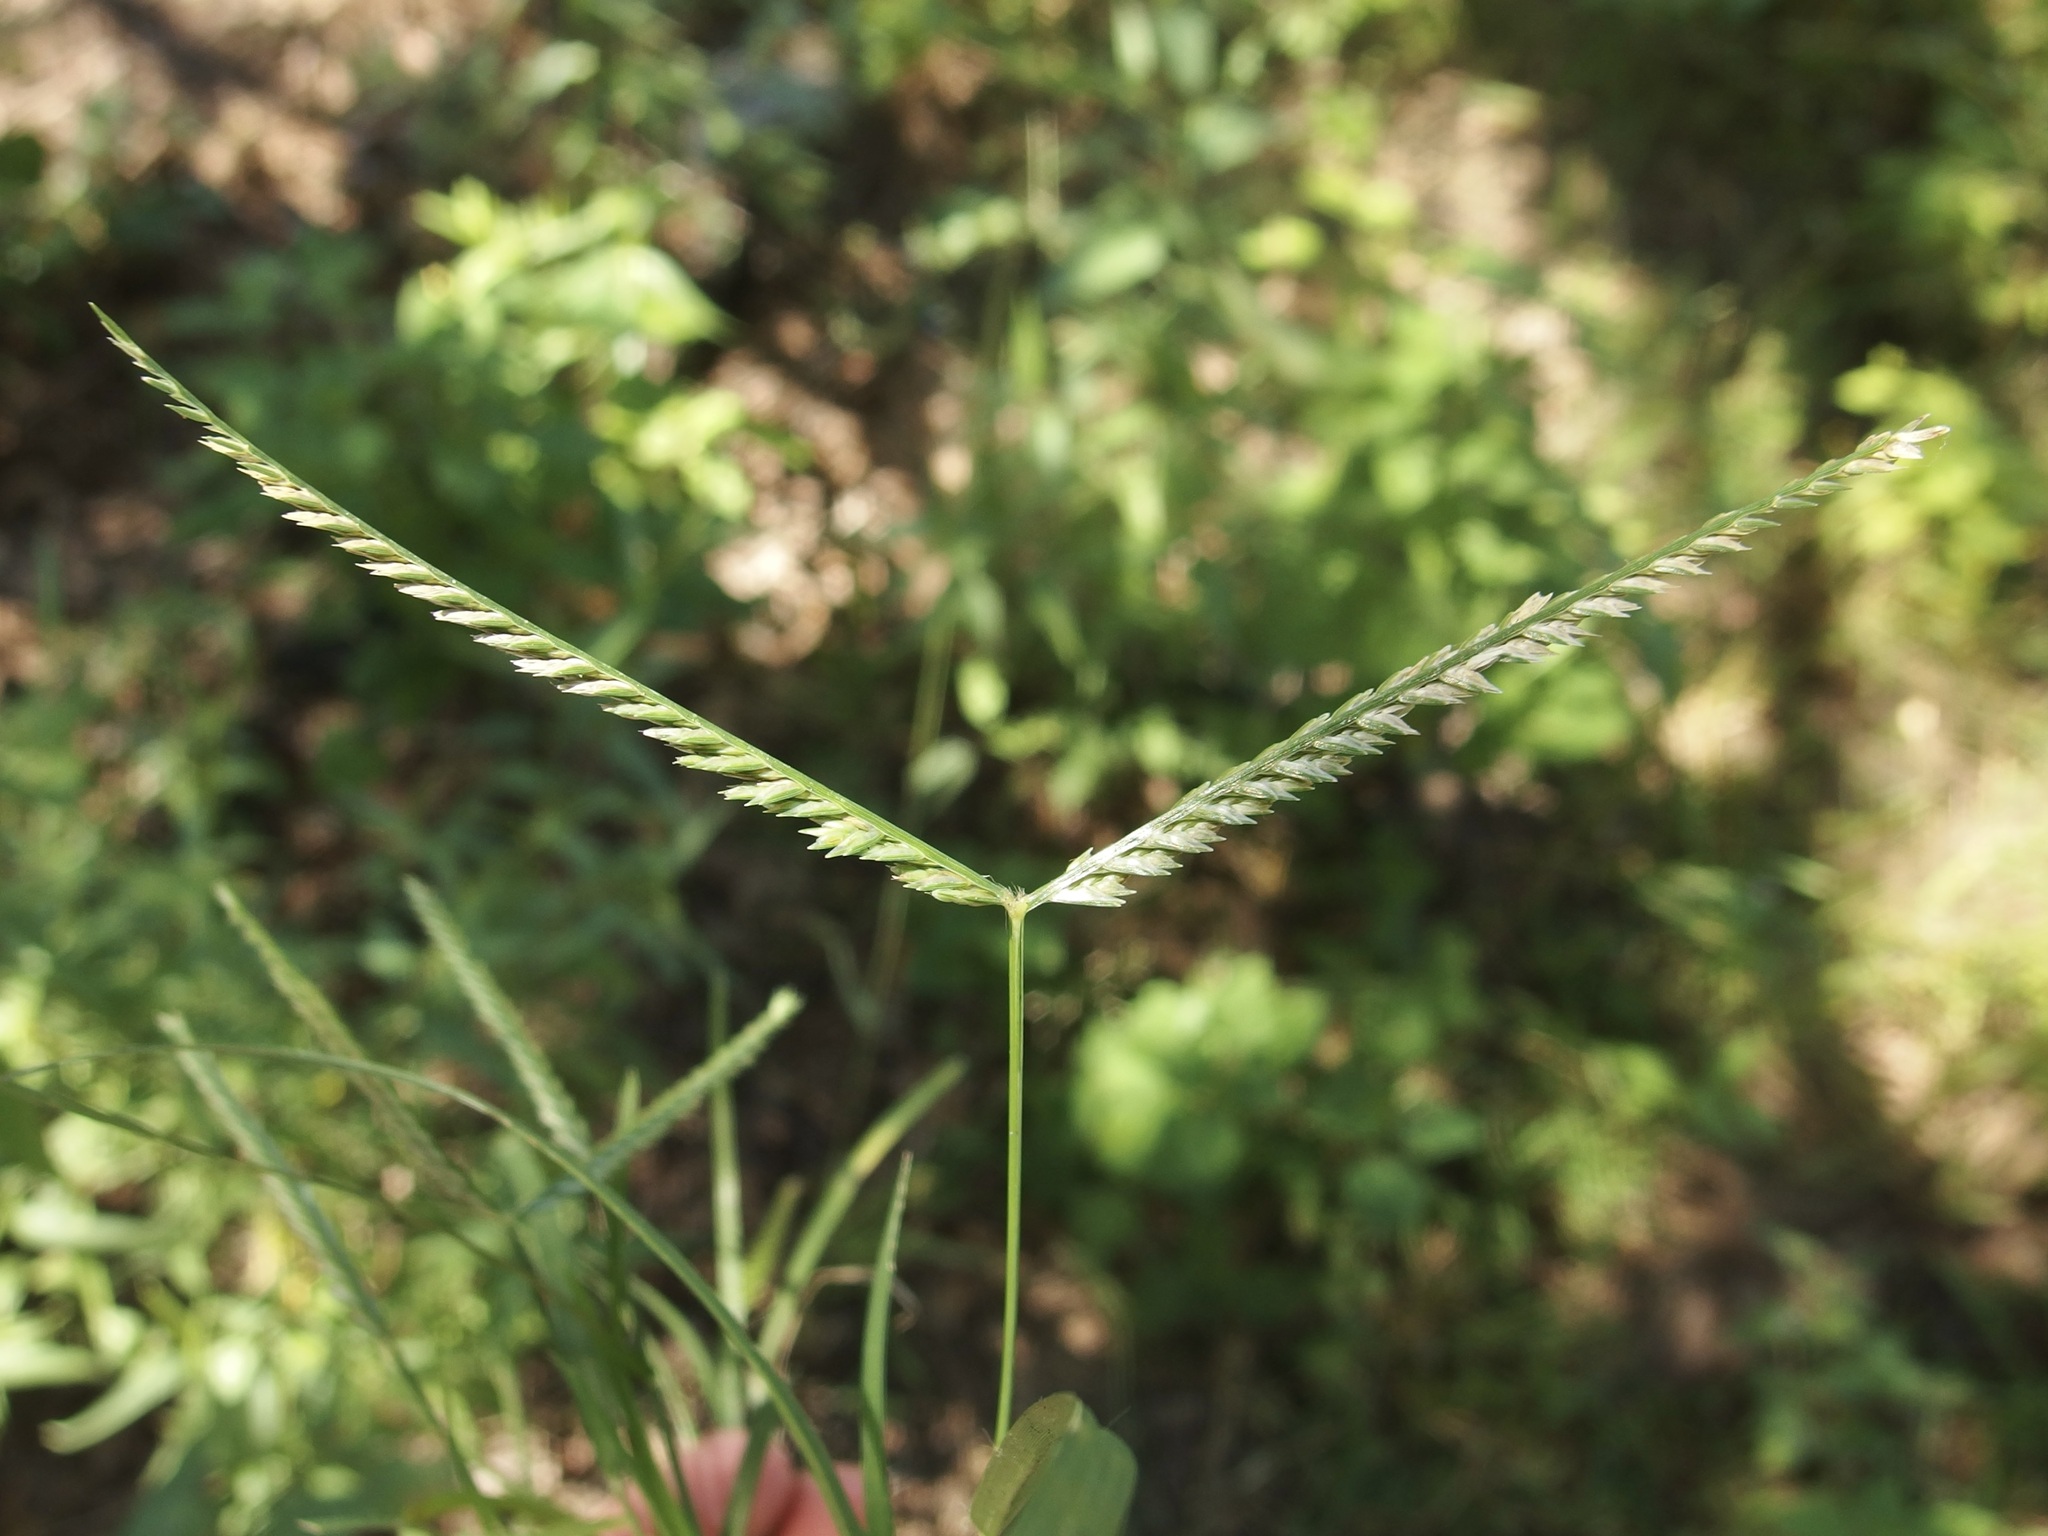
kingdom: Plantae
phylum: Tracheophyta
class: Liliopsida
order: Poales
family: Poaceae
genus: Eleusine
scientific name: Eleusine indica
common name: Yard-grass
